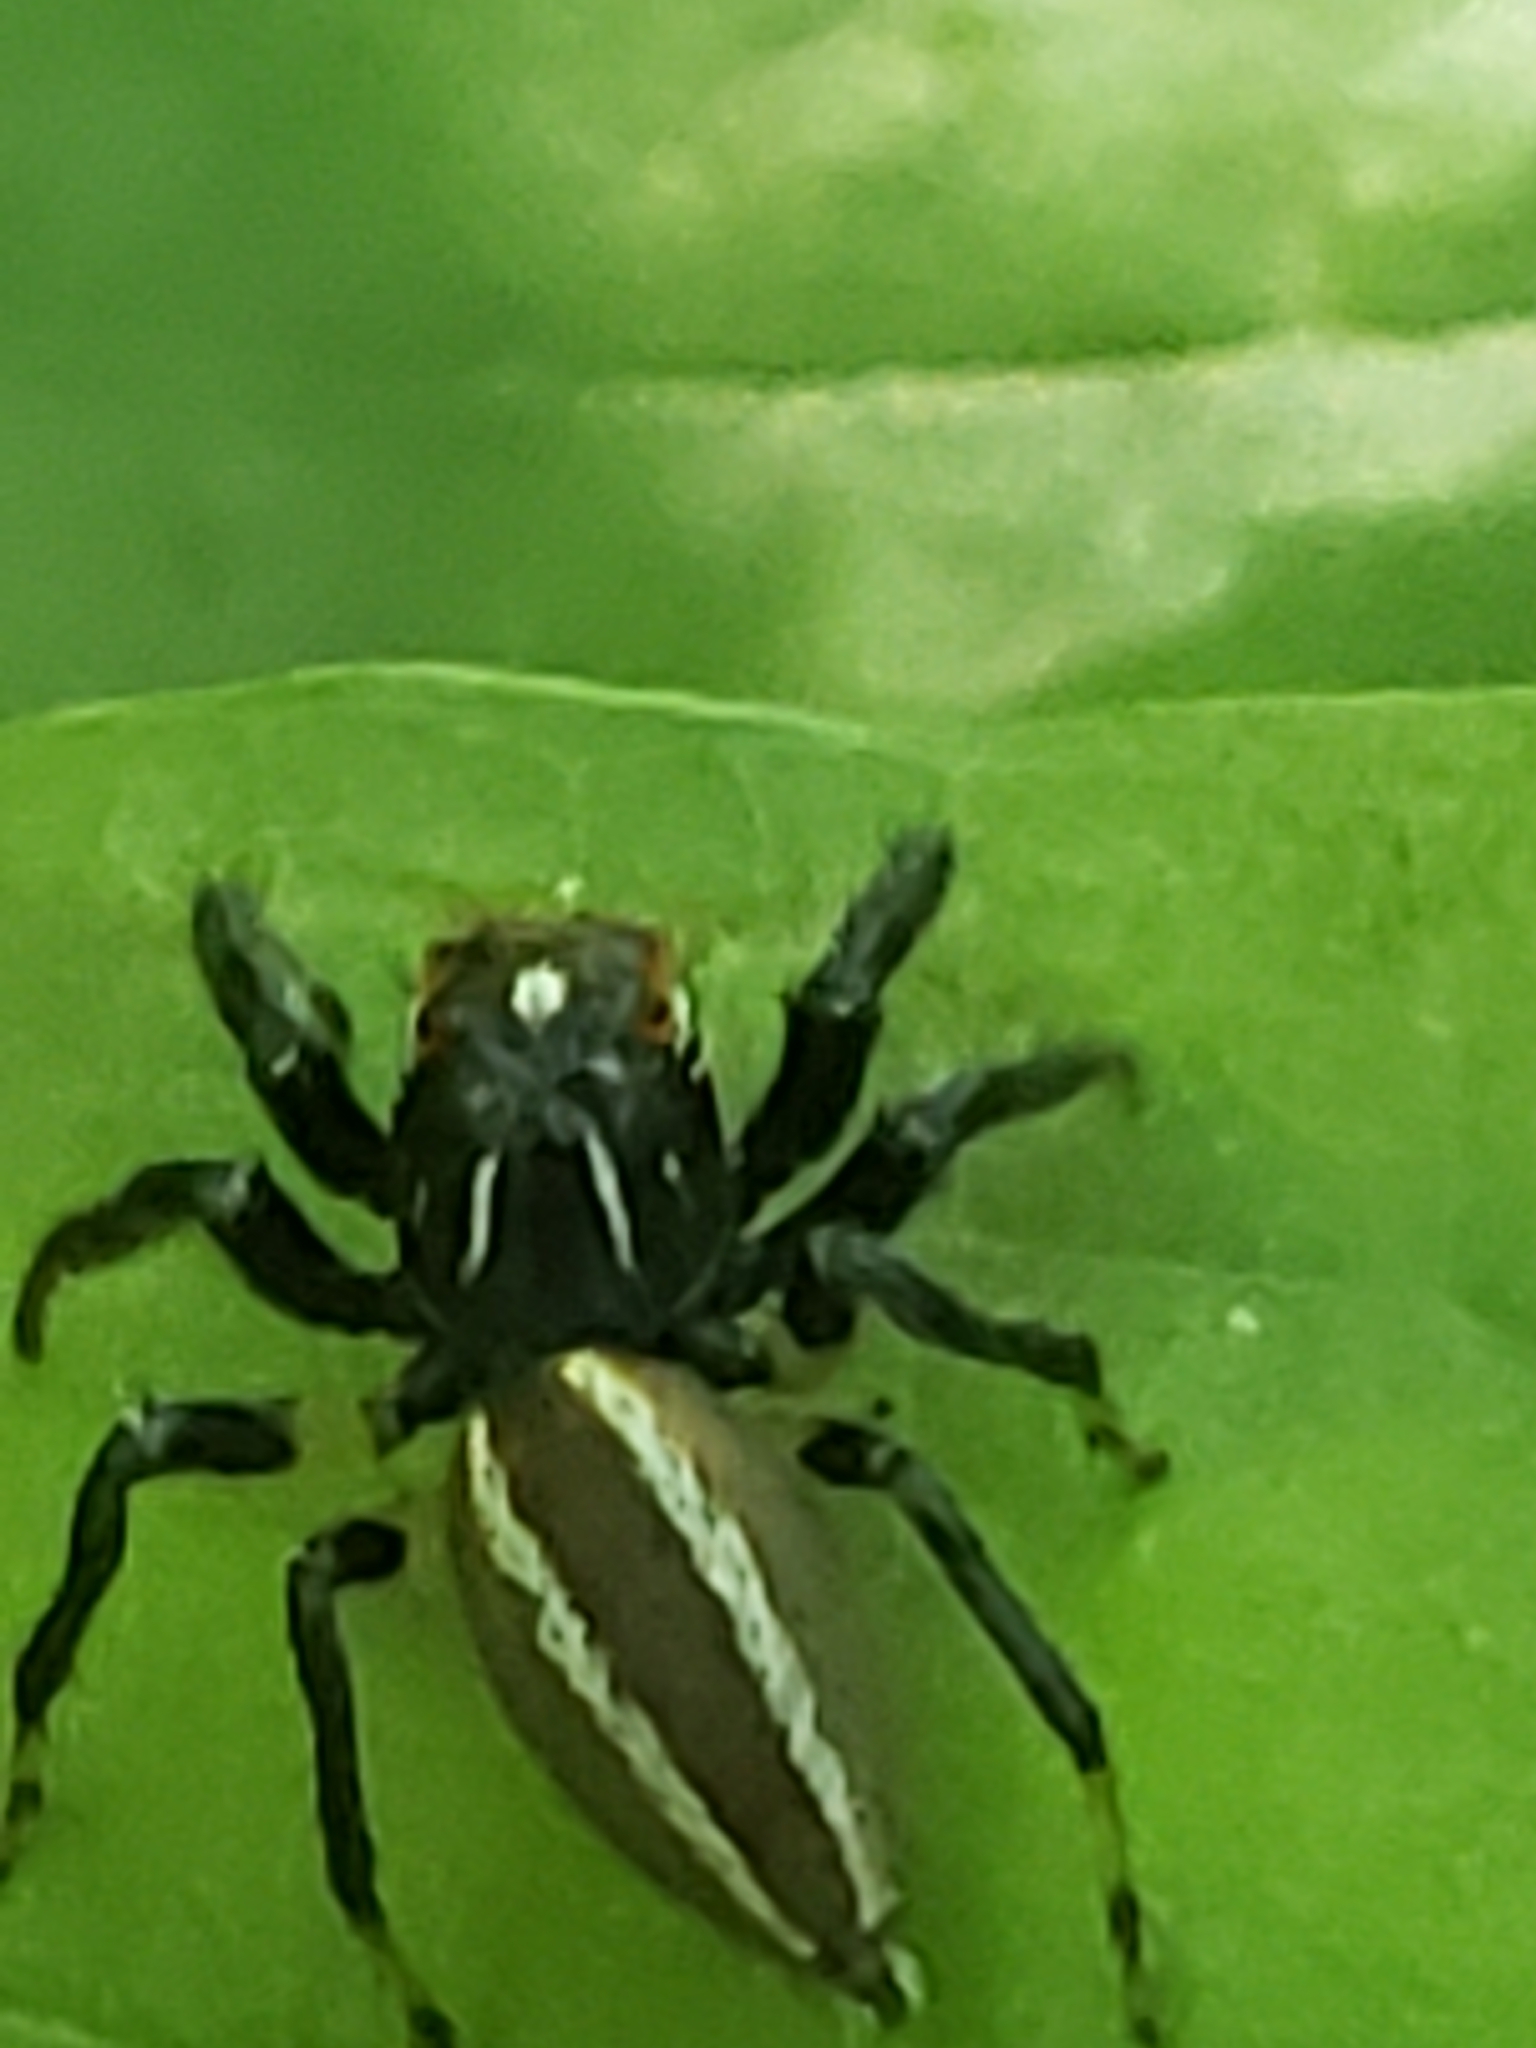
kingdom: Animalia
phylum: Arthropoda
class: Arachnida
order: Araneae
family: Salticidae
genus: Colonus
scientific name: Colonus sylvanus
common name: Jumping spiders
